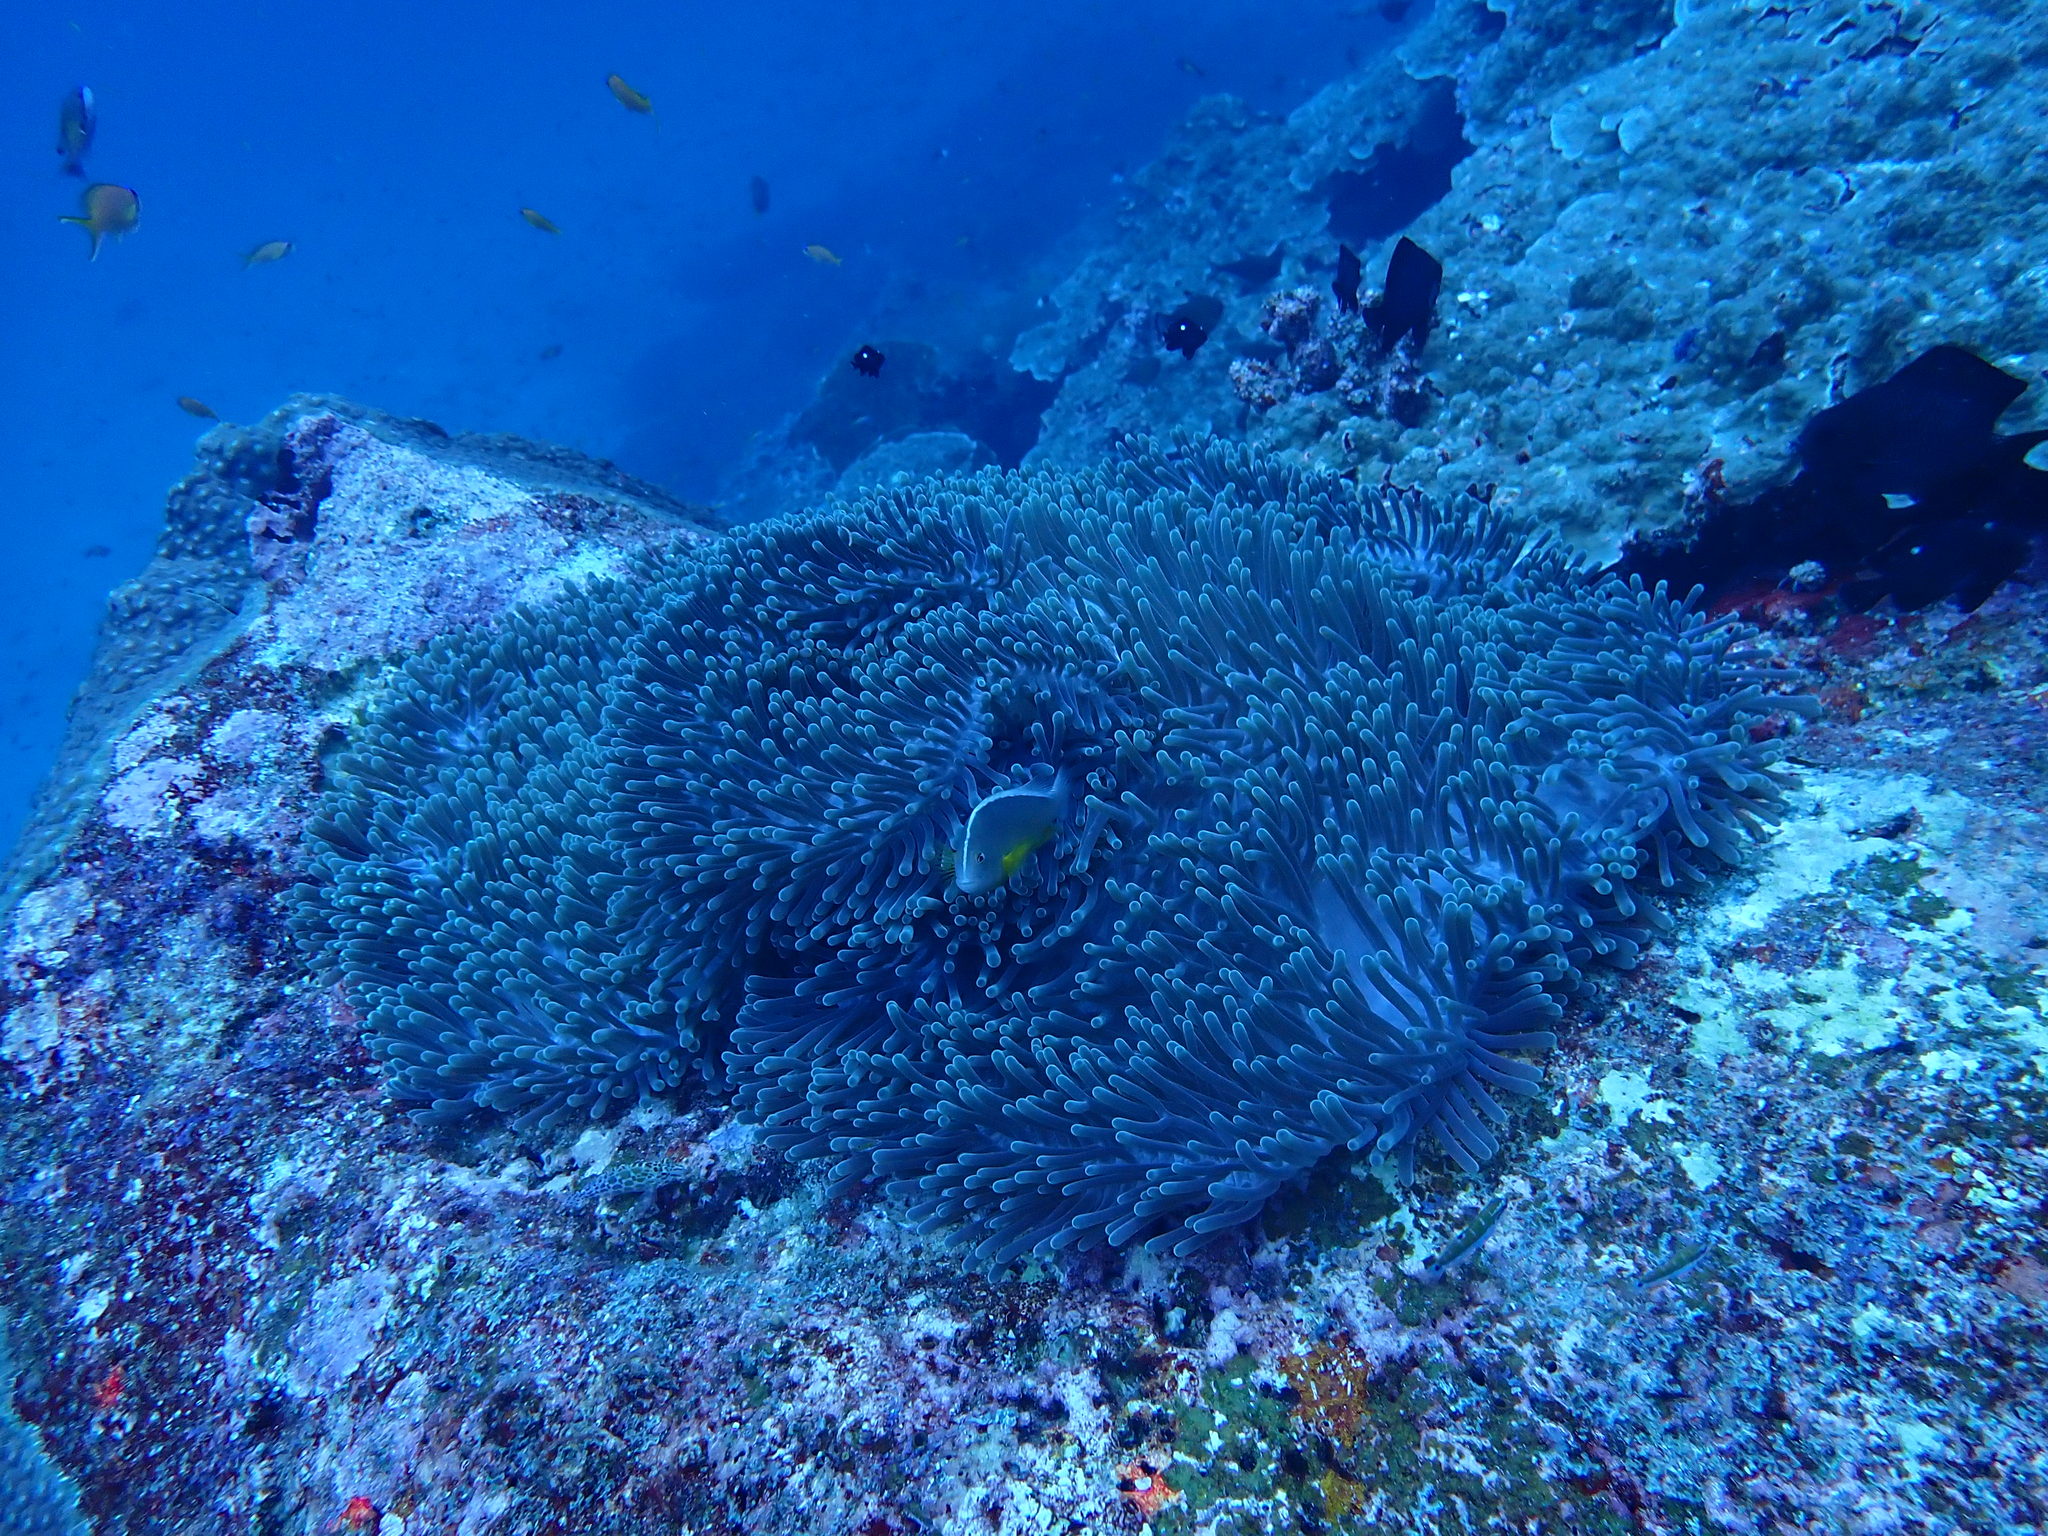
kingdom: Animalia
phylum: Cnidaria
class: Anthozoa
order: Actiniaria
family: Stichodactylidae
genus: Radianthus
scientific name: Radianthus magnifica
